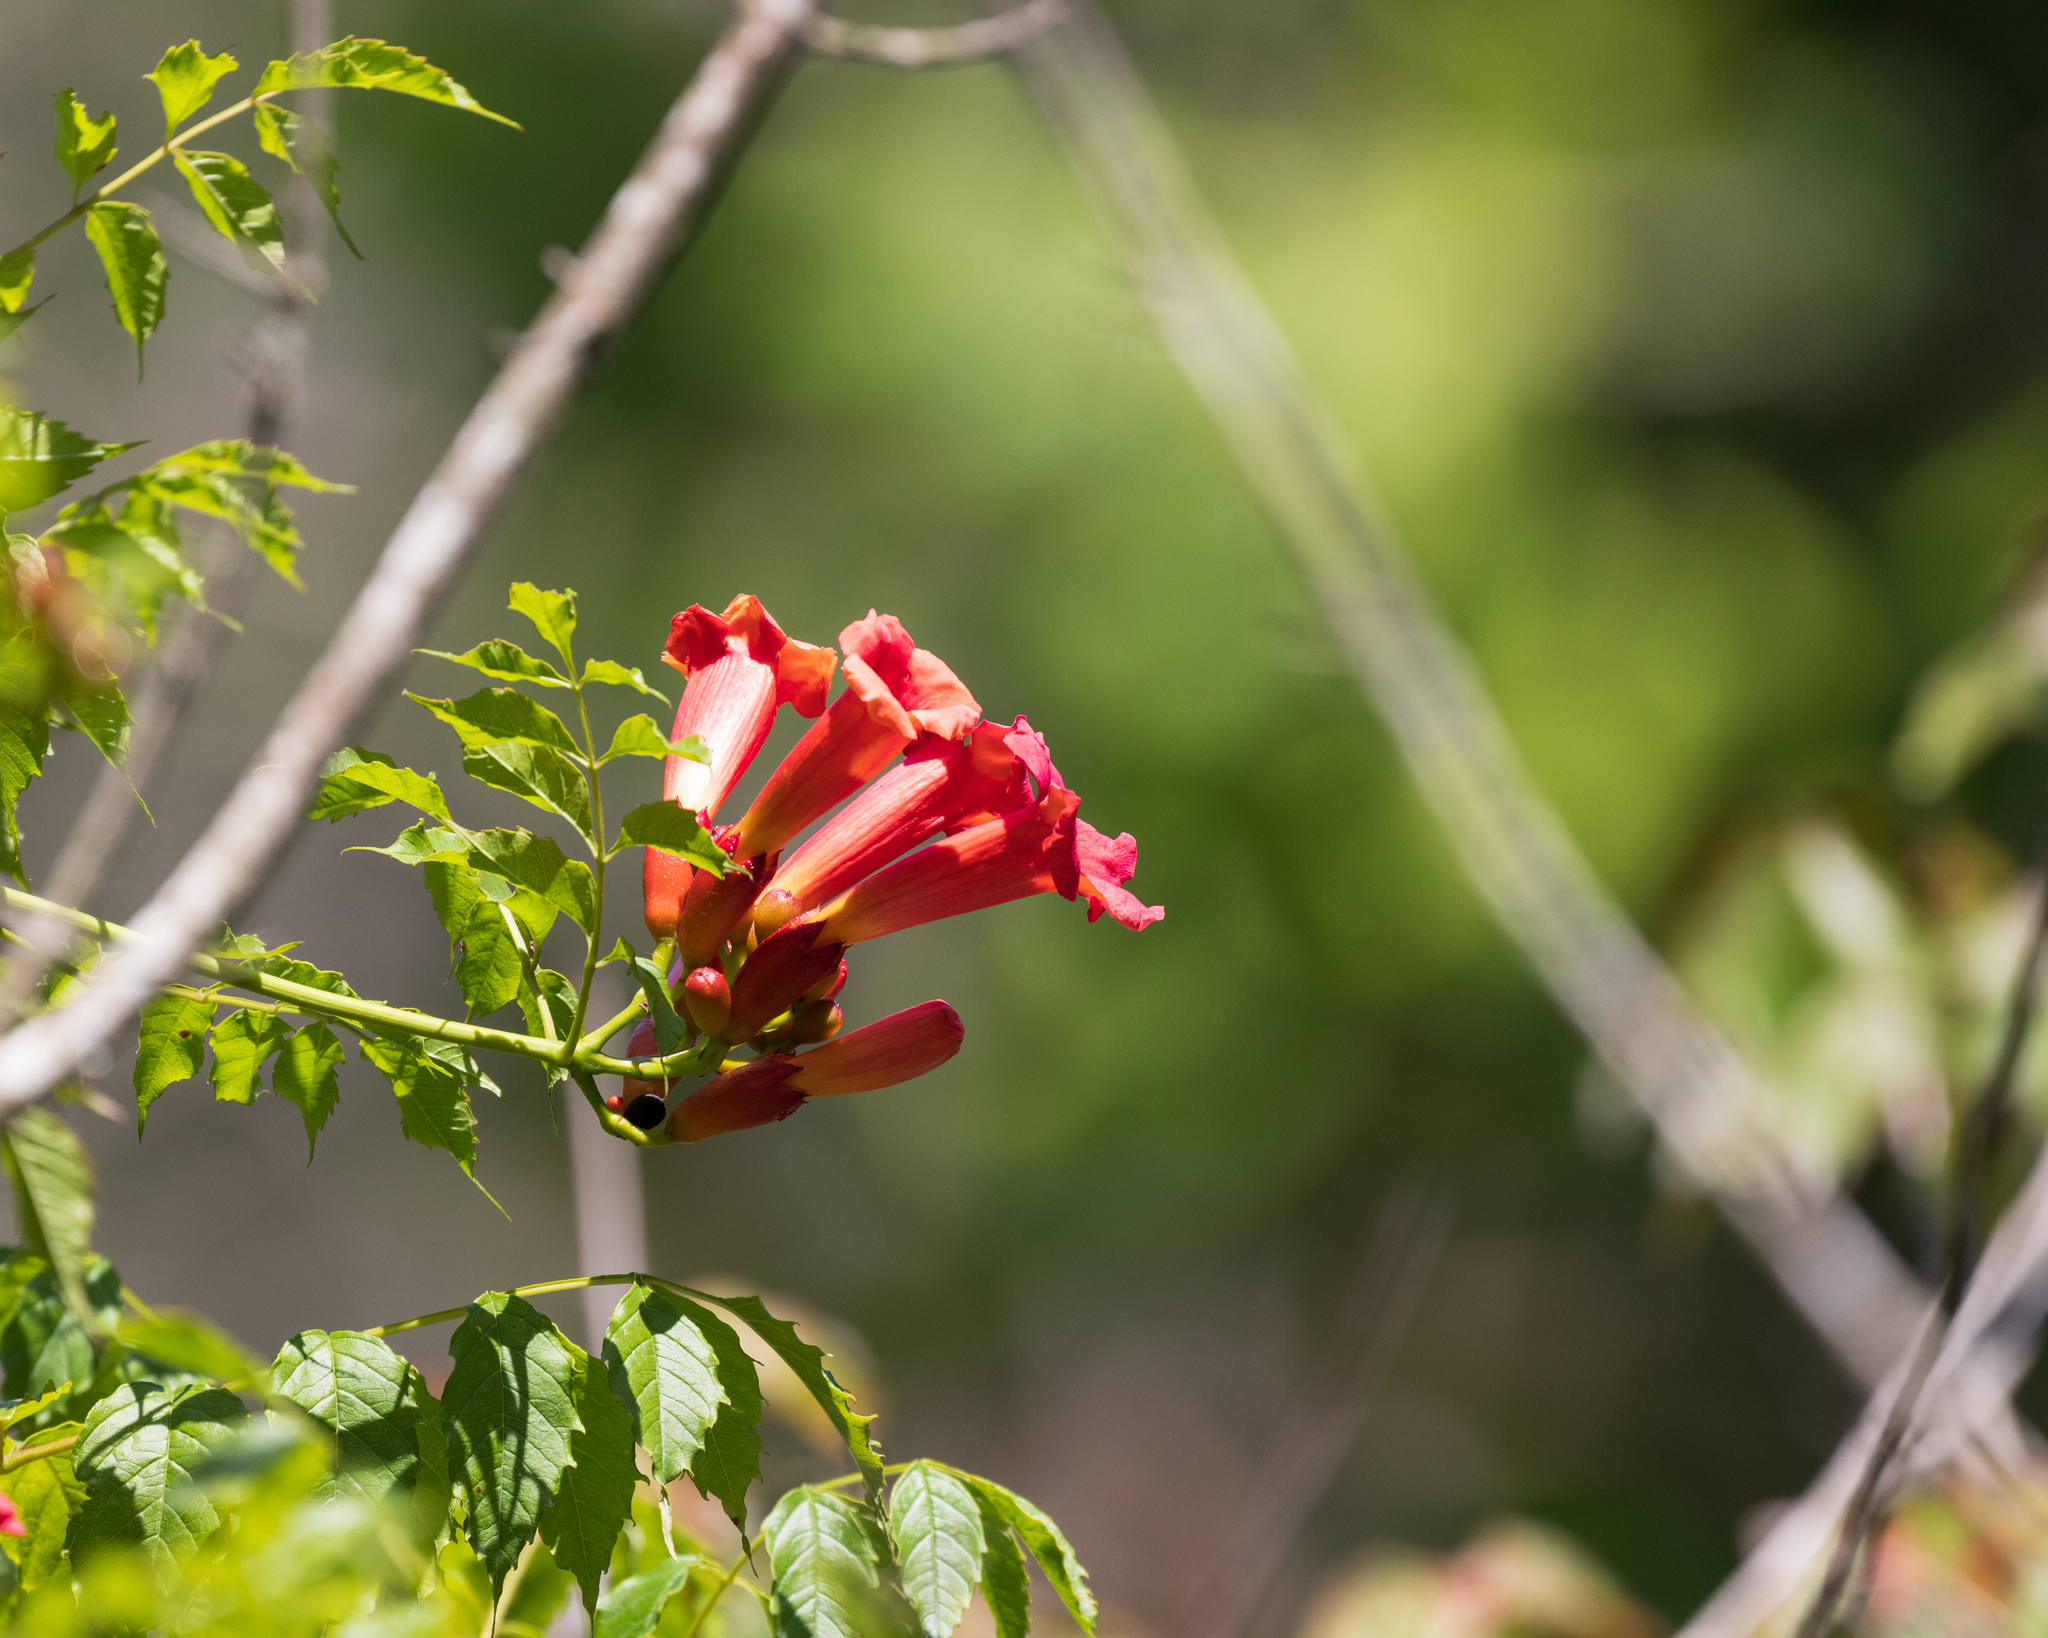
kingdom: Plantae
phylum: Tracheophyta
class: Magnoliopsida
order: Lamiales
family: Bignoniaceae
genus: Campsis
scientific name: Campsis radicans
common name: Trumpet-creeper
